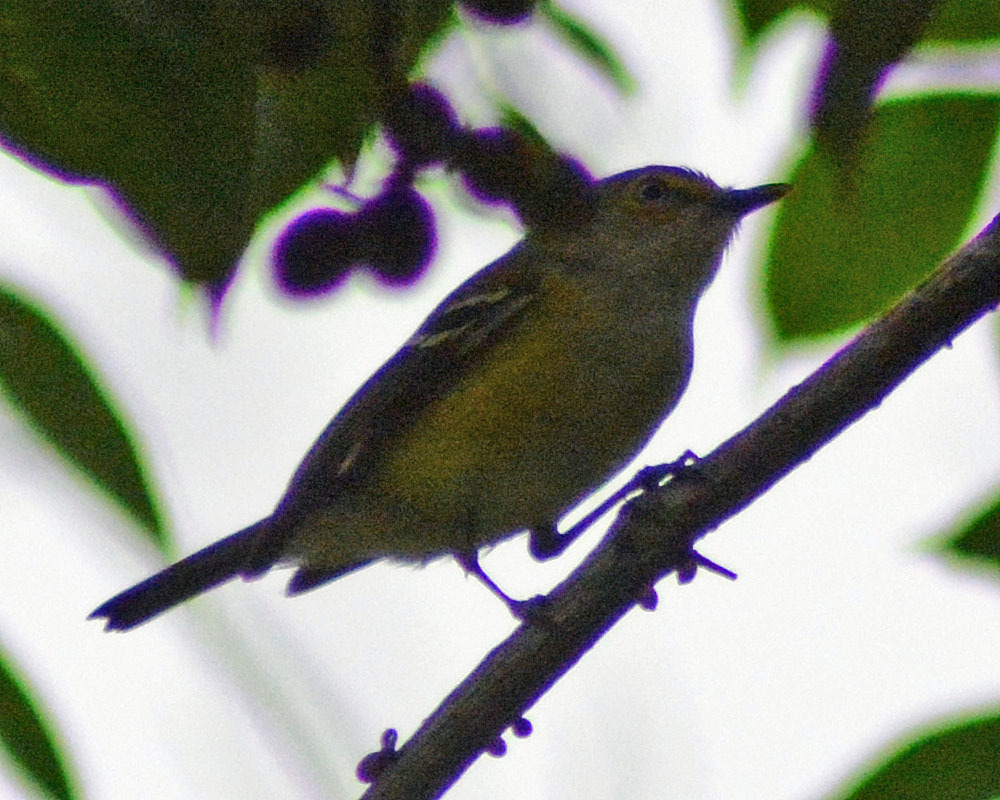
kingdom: Animalia
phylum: Chordata
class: Aves
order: Passeriformes
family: Vireonidae
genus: Vireo
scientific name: Vireo griseus
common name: White-eyed vireo
